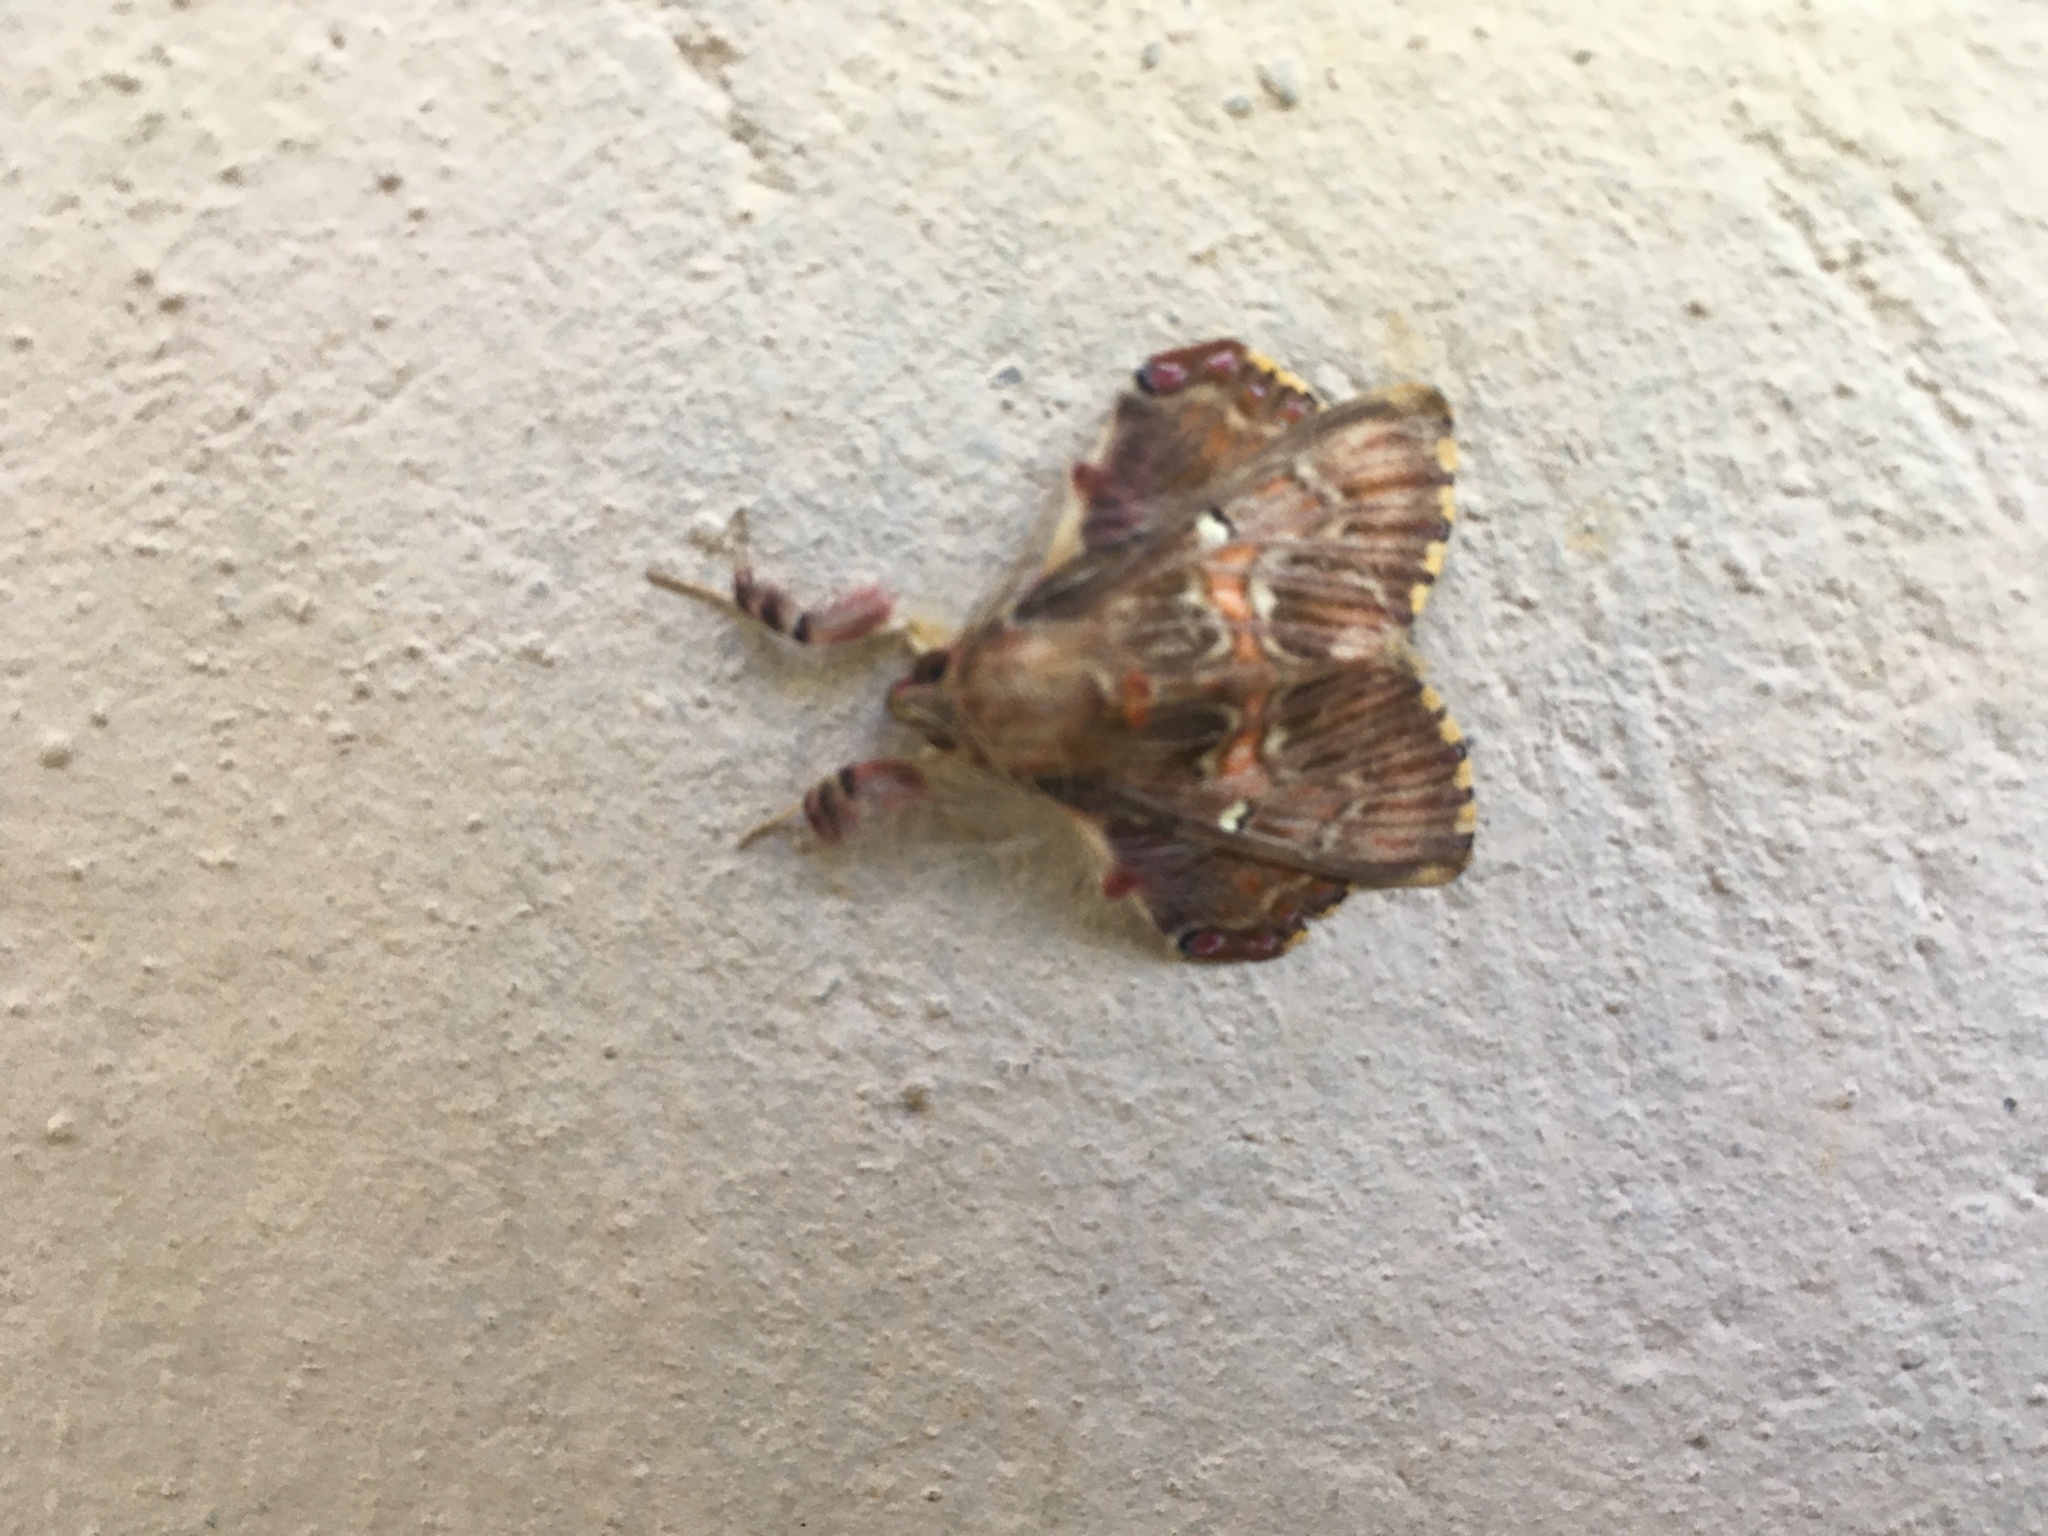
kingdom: Animalia
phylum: Arthropoda
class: Insecta
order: Lepidoptera
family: Erebidae
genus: Sosxetra
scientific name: Sosxetra grata
